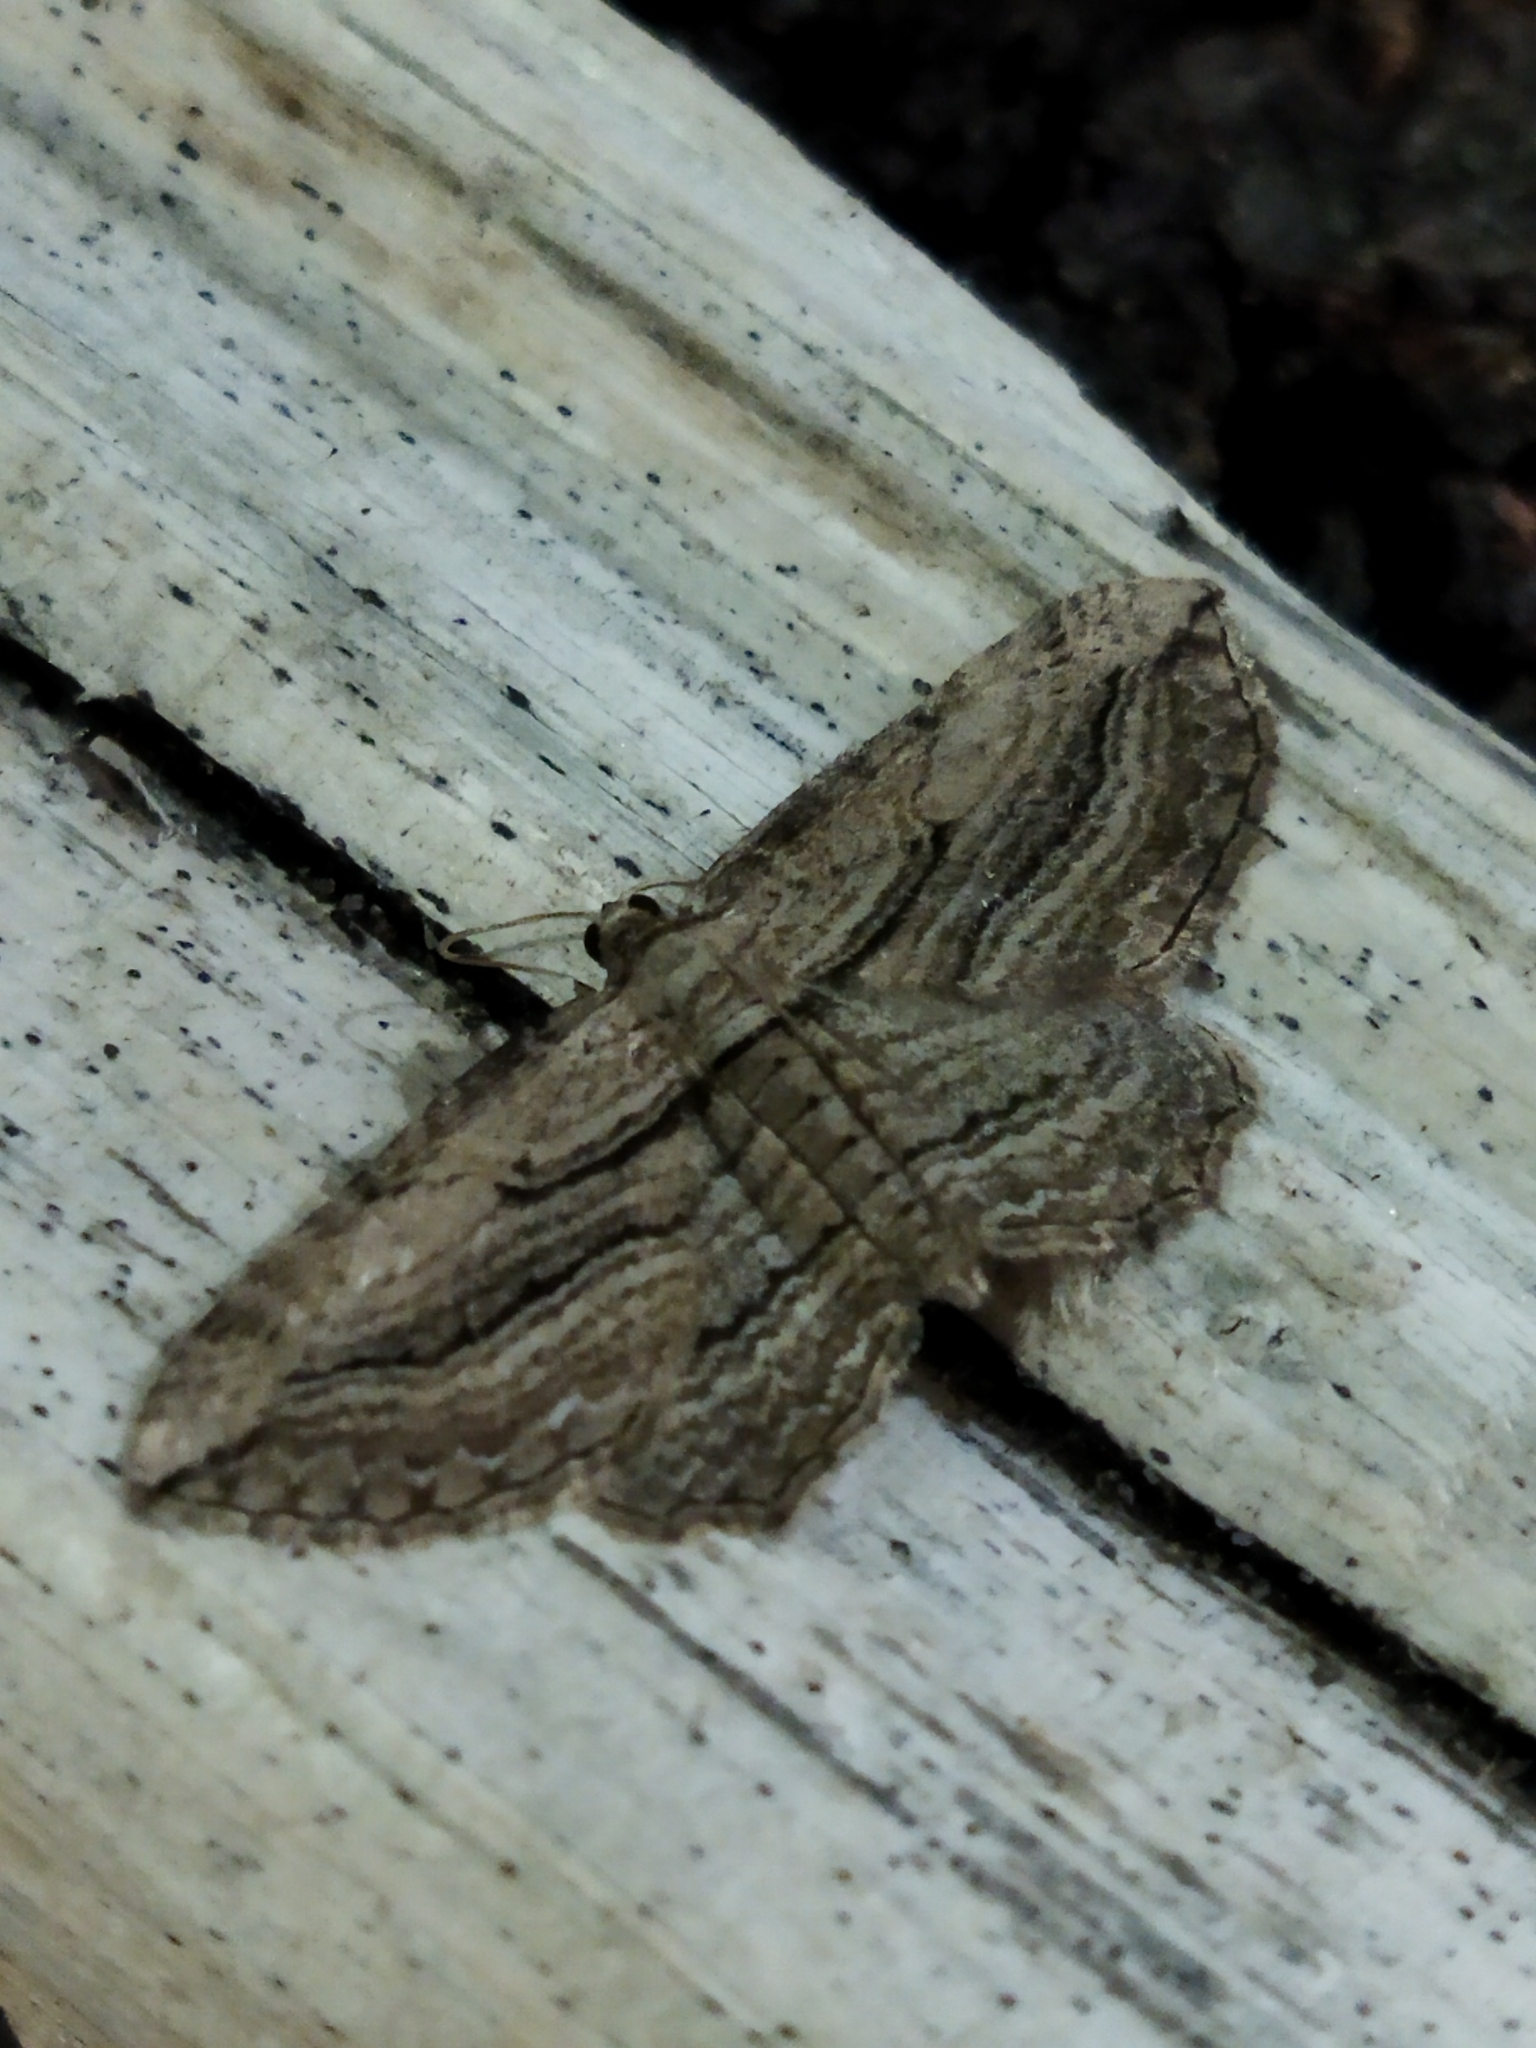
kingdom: Animalia
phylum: Arthropoda
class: Insecta
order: Lepidoptera
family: Geometridae
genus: Horisme
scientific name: Horisme corticata
